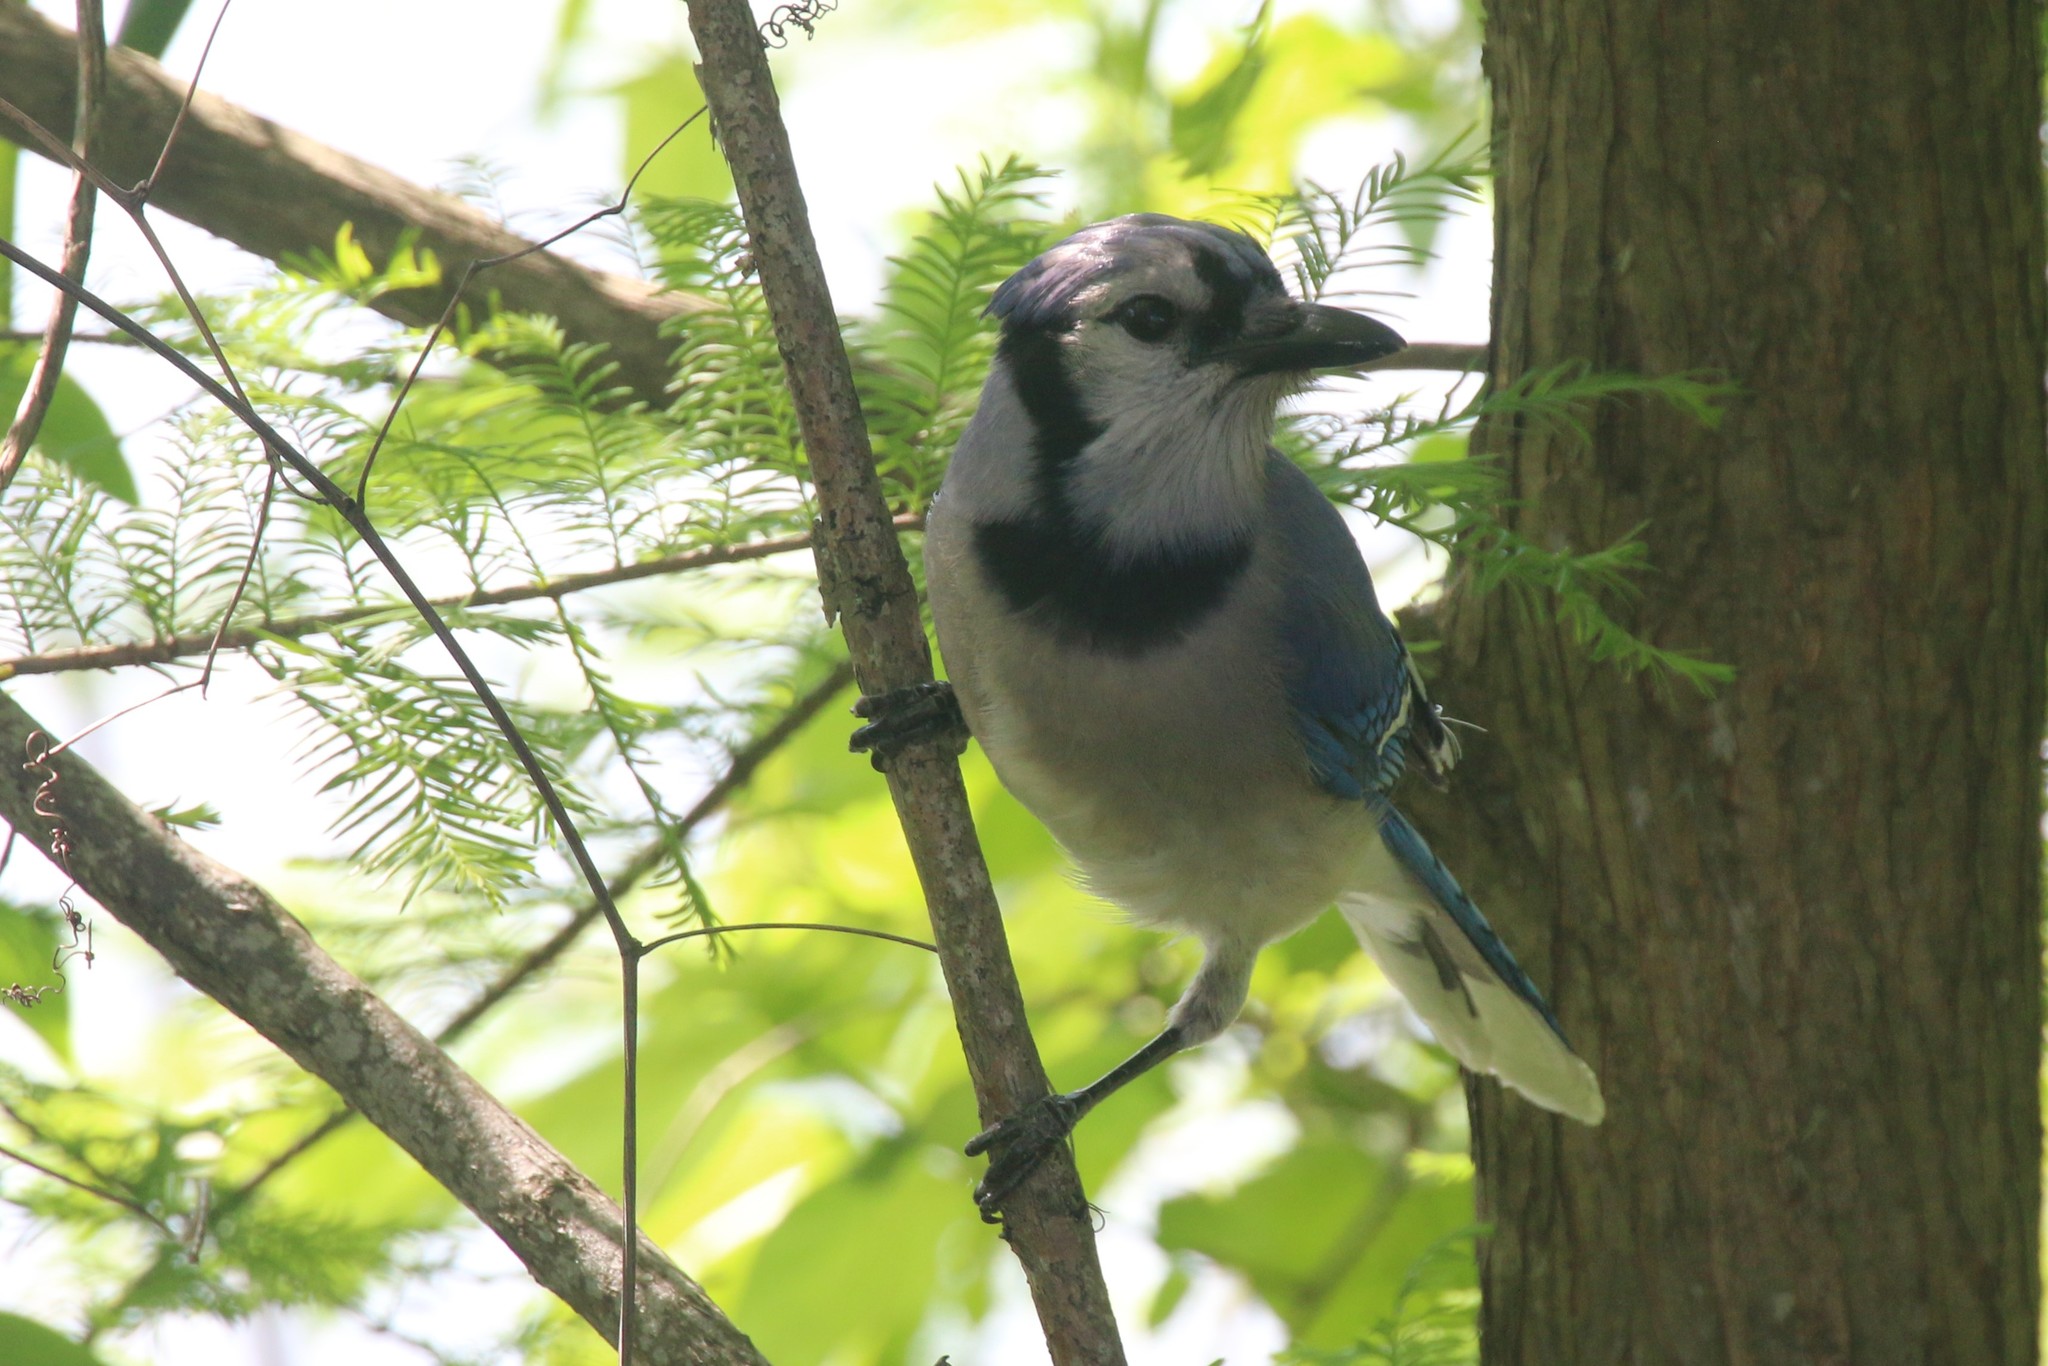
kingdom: Animalia
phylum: Chordata
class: Aves
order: Passeriformes
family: Corvidae
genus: Cyanocitta
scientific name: Cyanocitta cristata
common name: Blue jay
